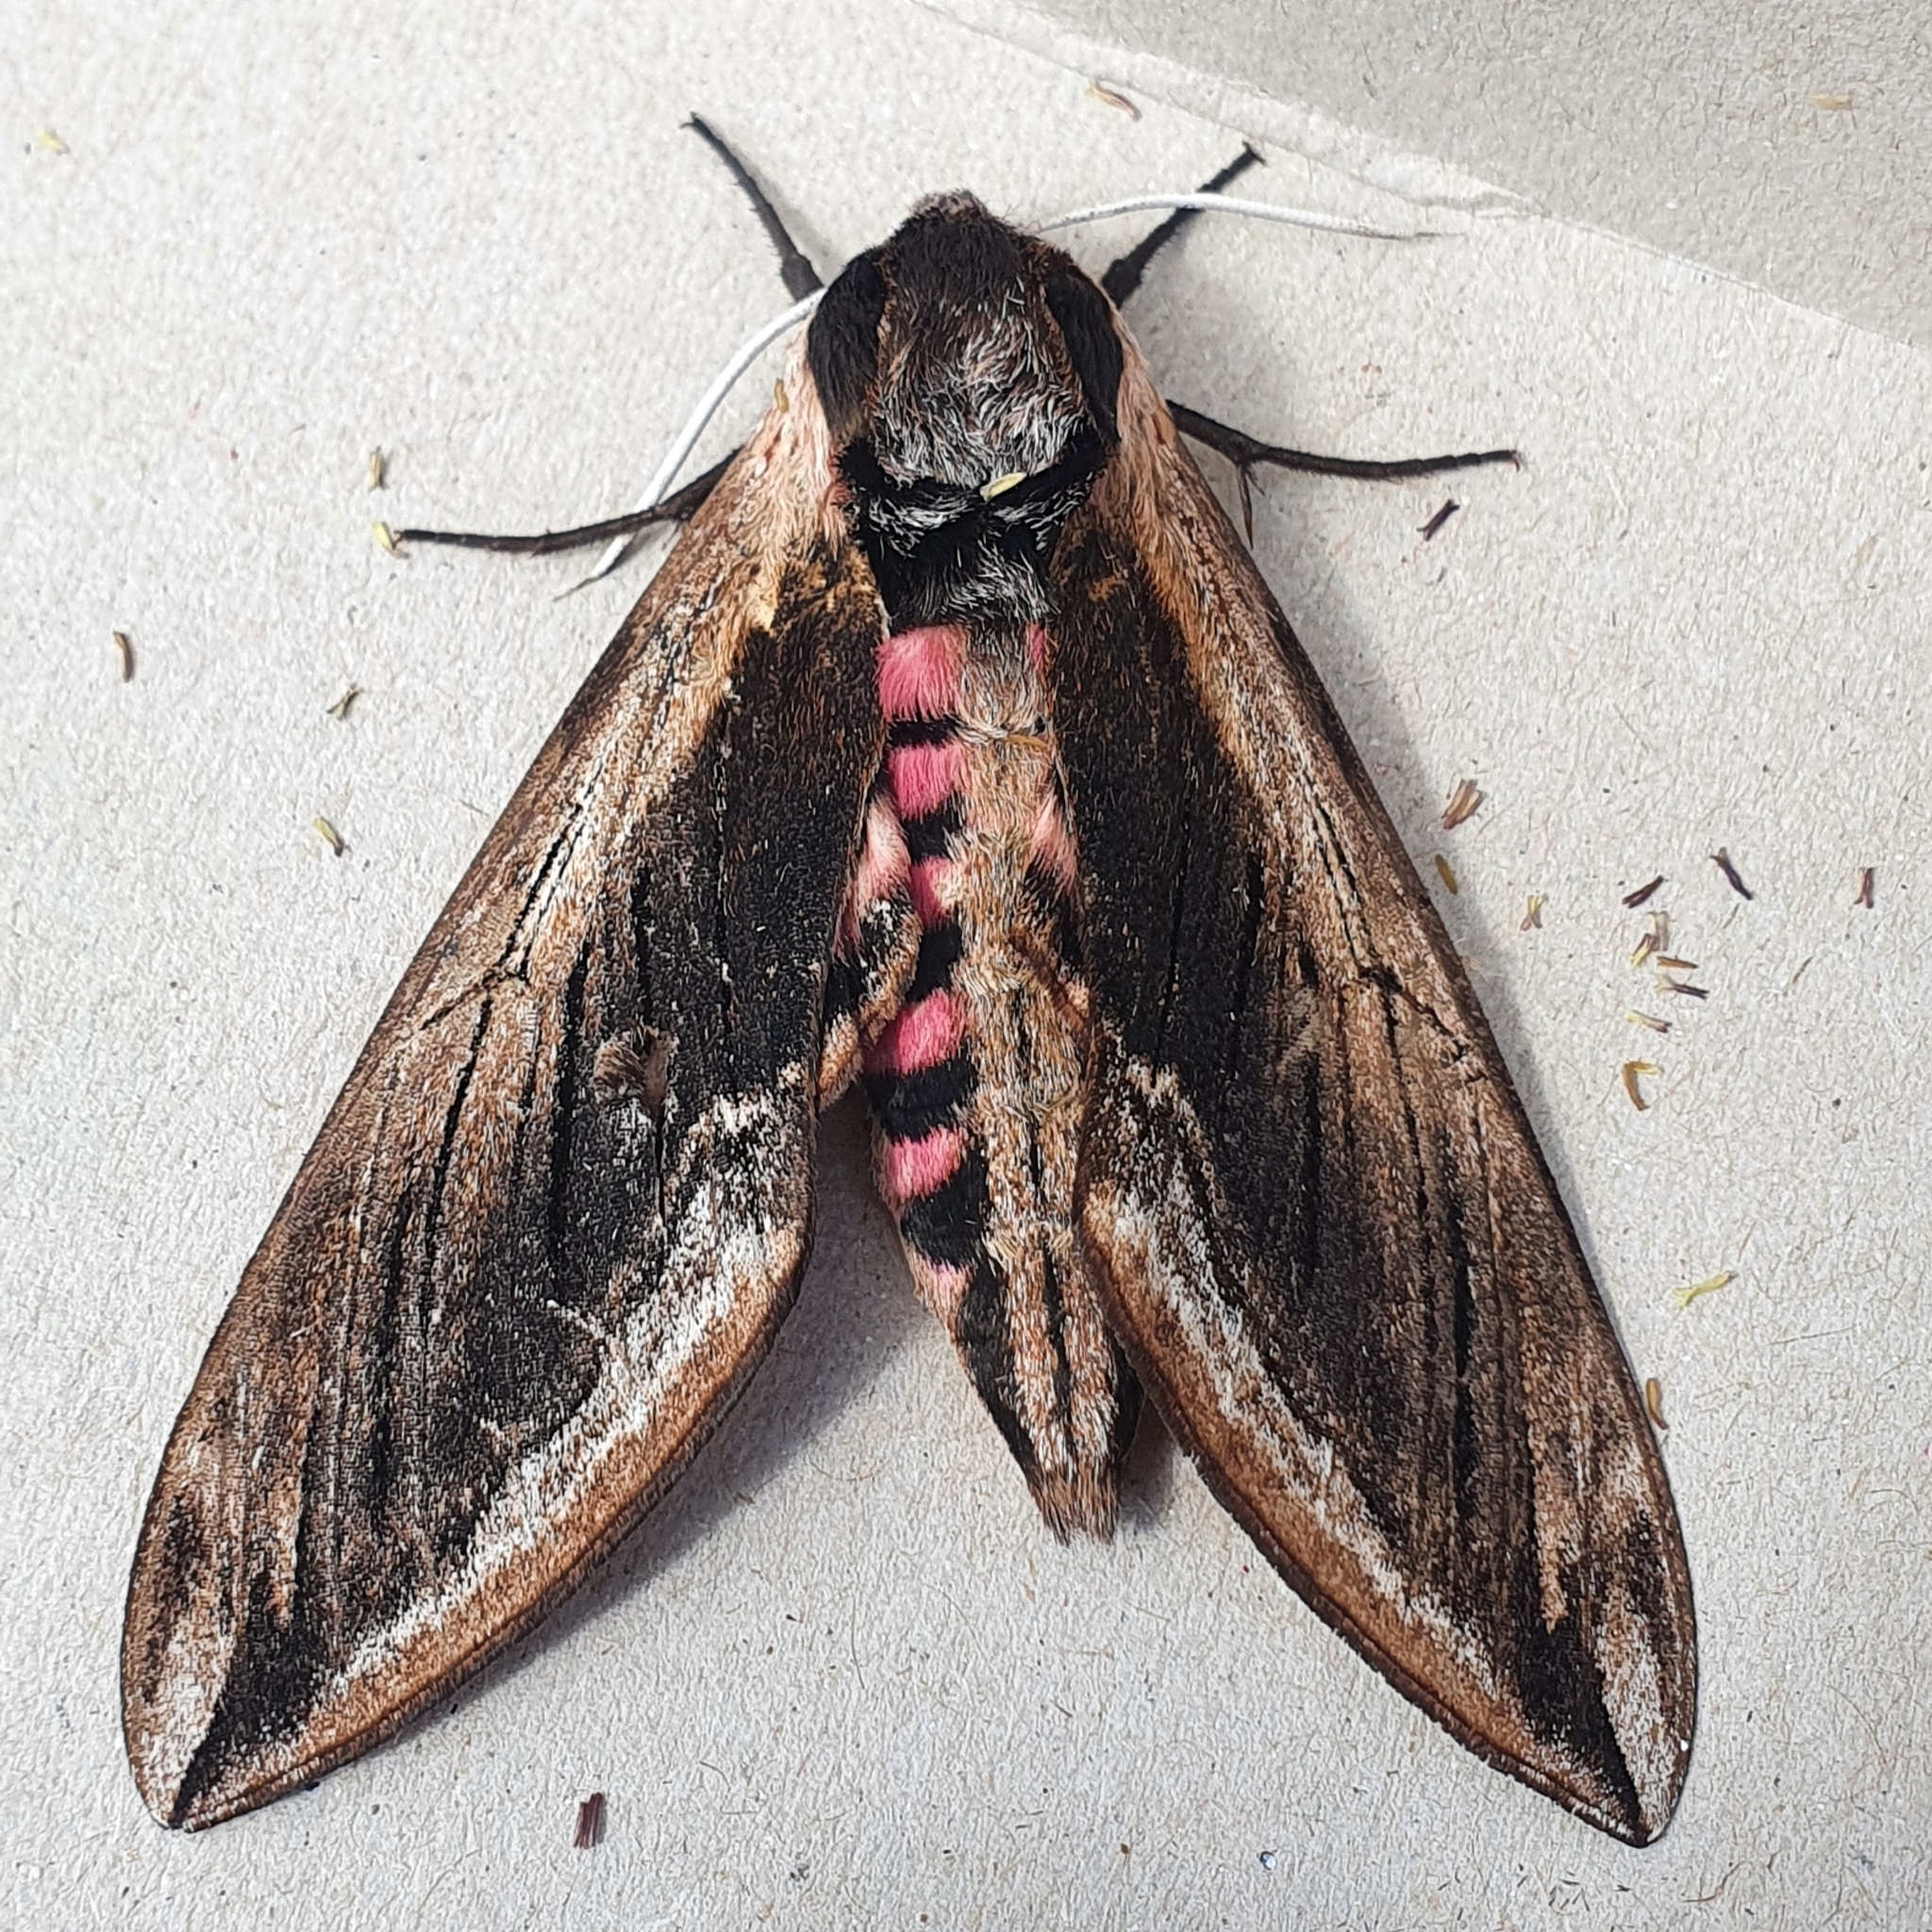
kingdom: Animalia
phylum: Arthropoda
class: Insecta
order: Lepidoptera
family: Sphingidae
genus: Sphinx
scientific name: Sphinx ligustri
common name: Privet hawk-moth
